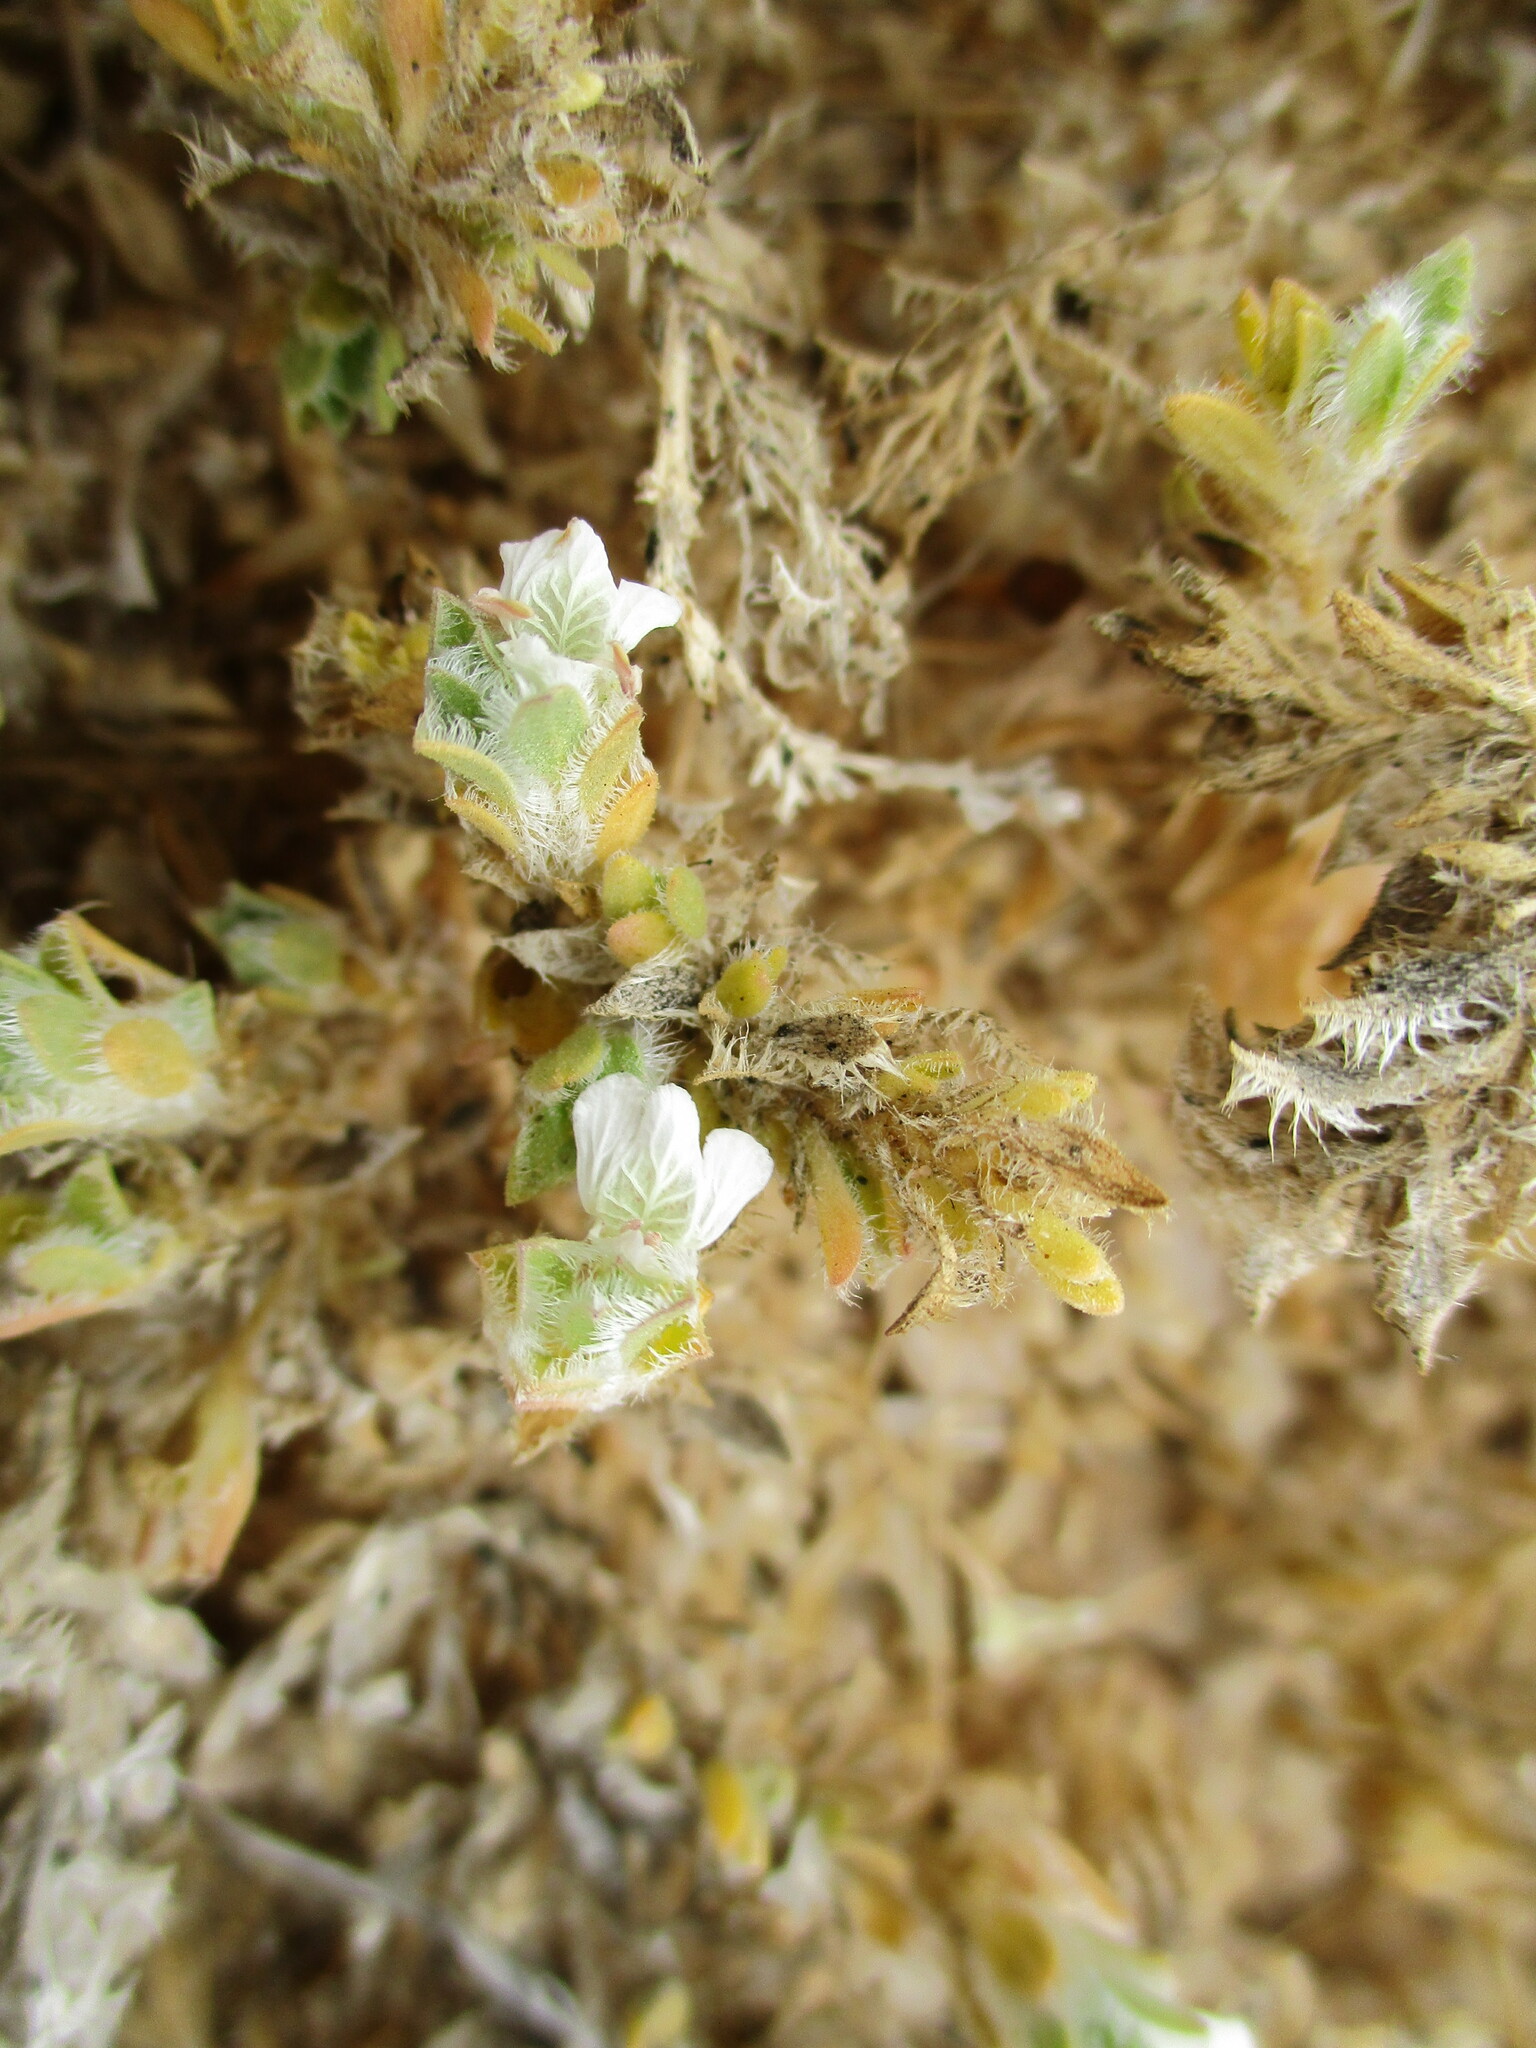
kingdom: Plantae
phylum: Tracheophyta
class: Magnoliopsida
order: Lamiales
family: Acanthaceae
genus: Pogonospermum
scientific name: Pogonospermum
